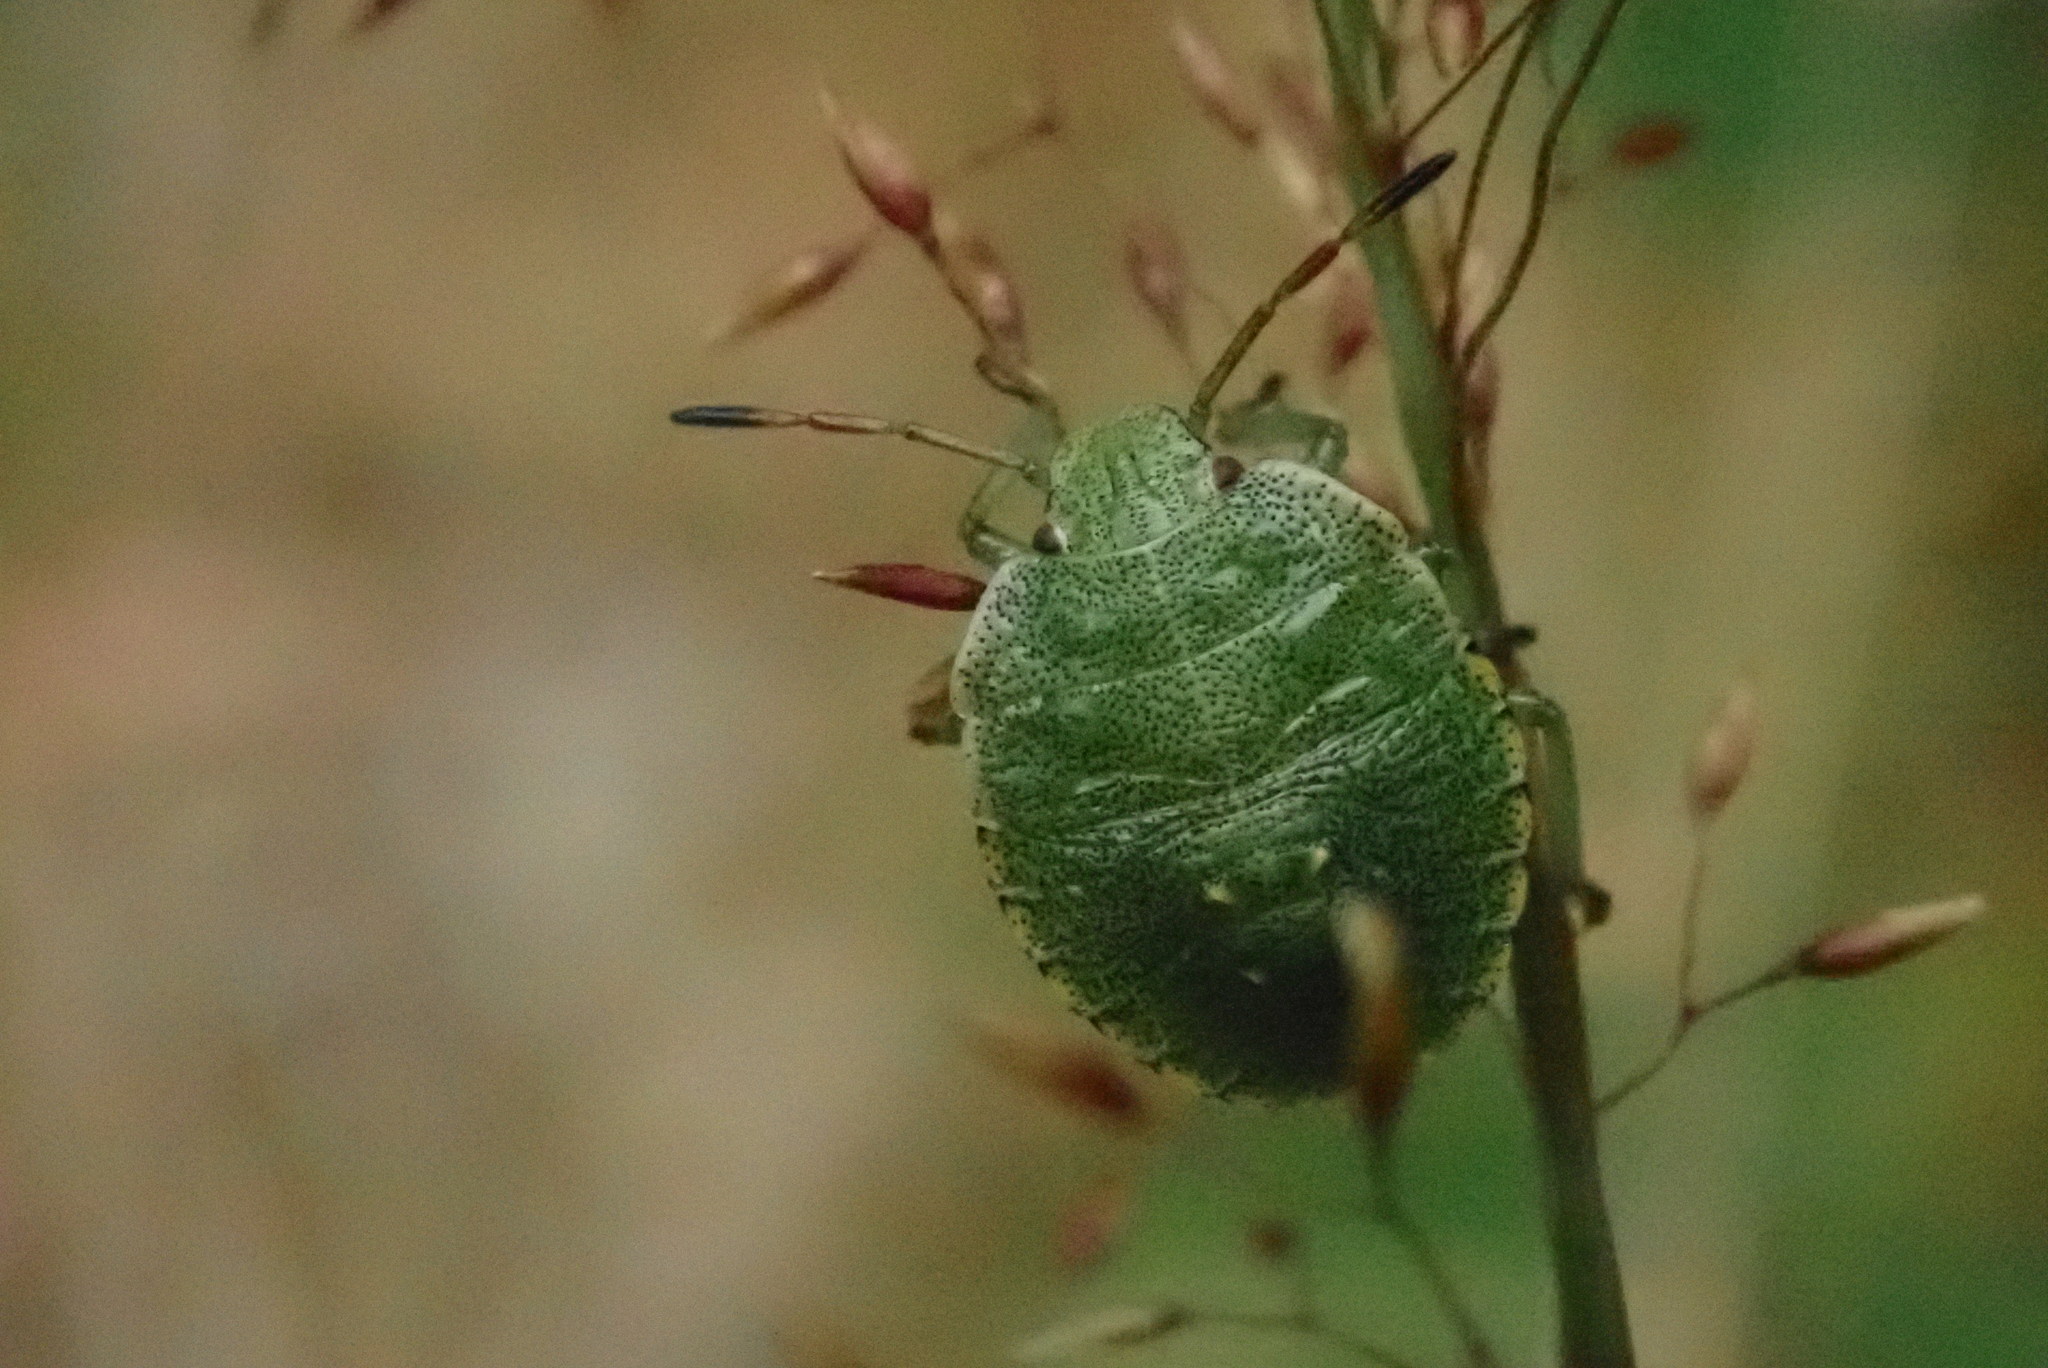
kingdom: Animalia
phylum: Arthropoda
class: Insecta
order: Hemiptera
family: Pentatomidae
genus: Palomena
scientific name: Palomena prasina
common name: Green shieldbug
